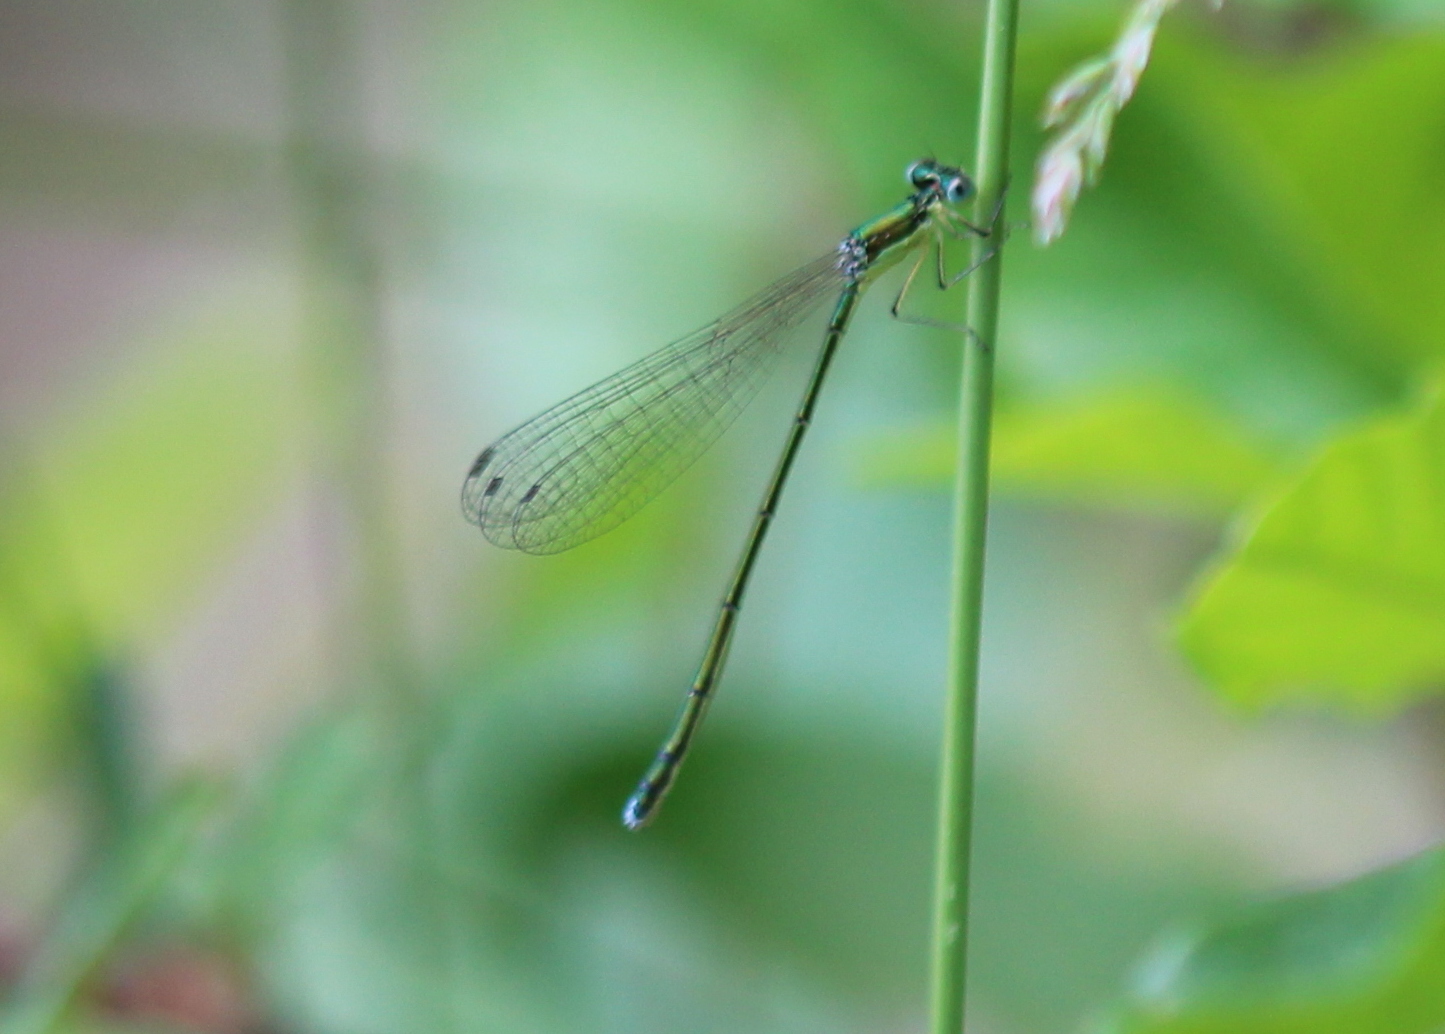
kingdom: Animalia
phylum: Arthropoda
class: Insecta
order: Odonata
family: Coenagrionidae
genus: Nehalennia
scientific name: Nehalennia irene
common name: Sedge sprite
